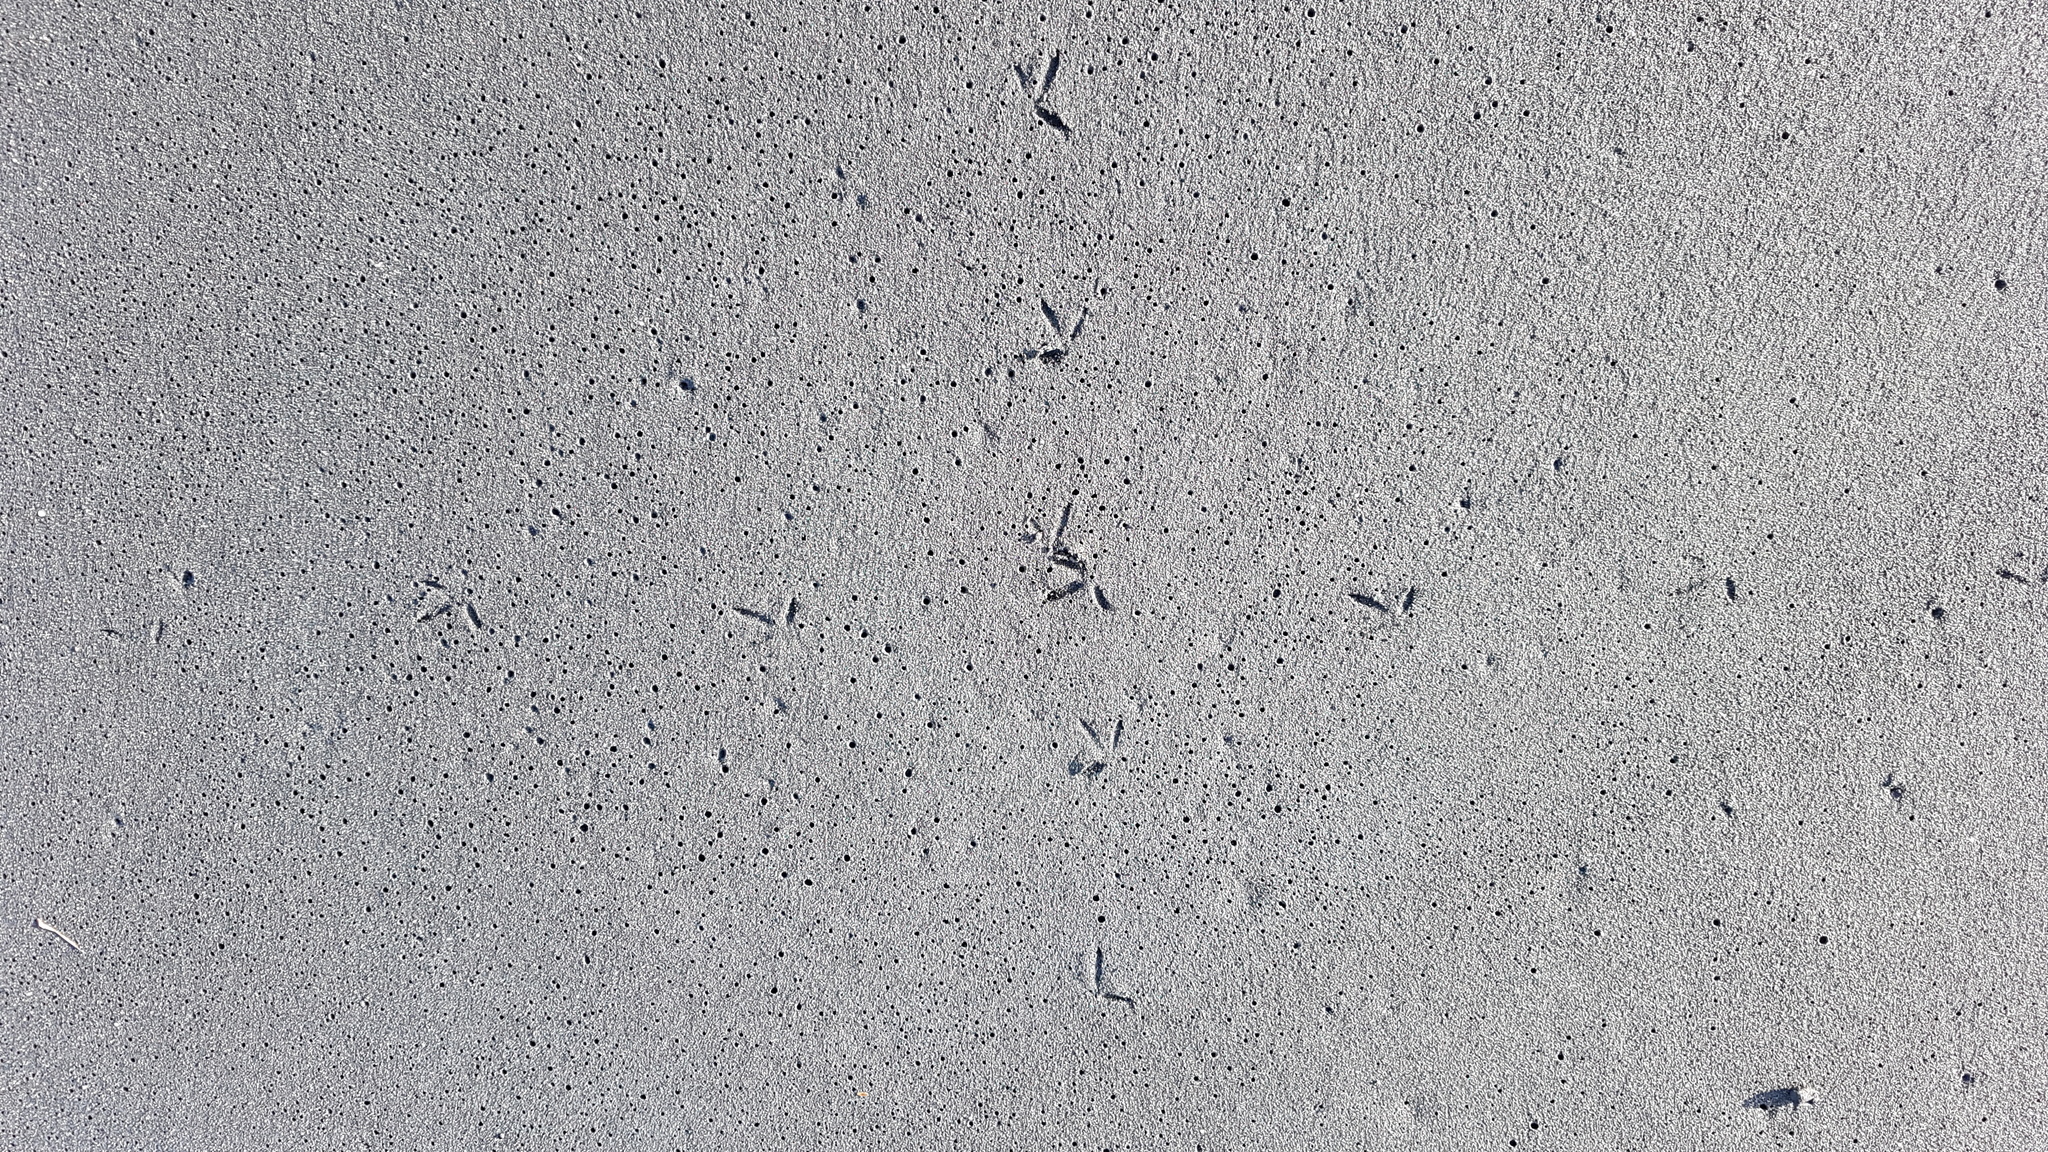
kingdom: Animalia
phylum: Chordata
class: Aves
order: Charadriiformes
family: Charadriidae
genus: Anarhynchus
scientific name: Anarhynchus
